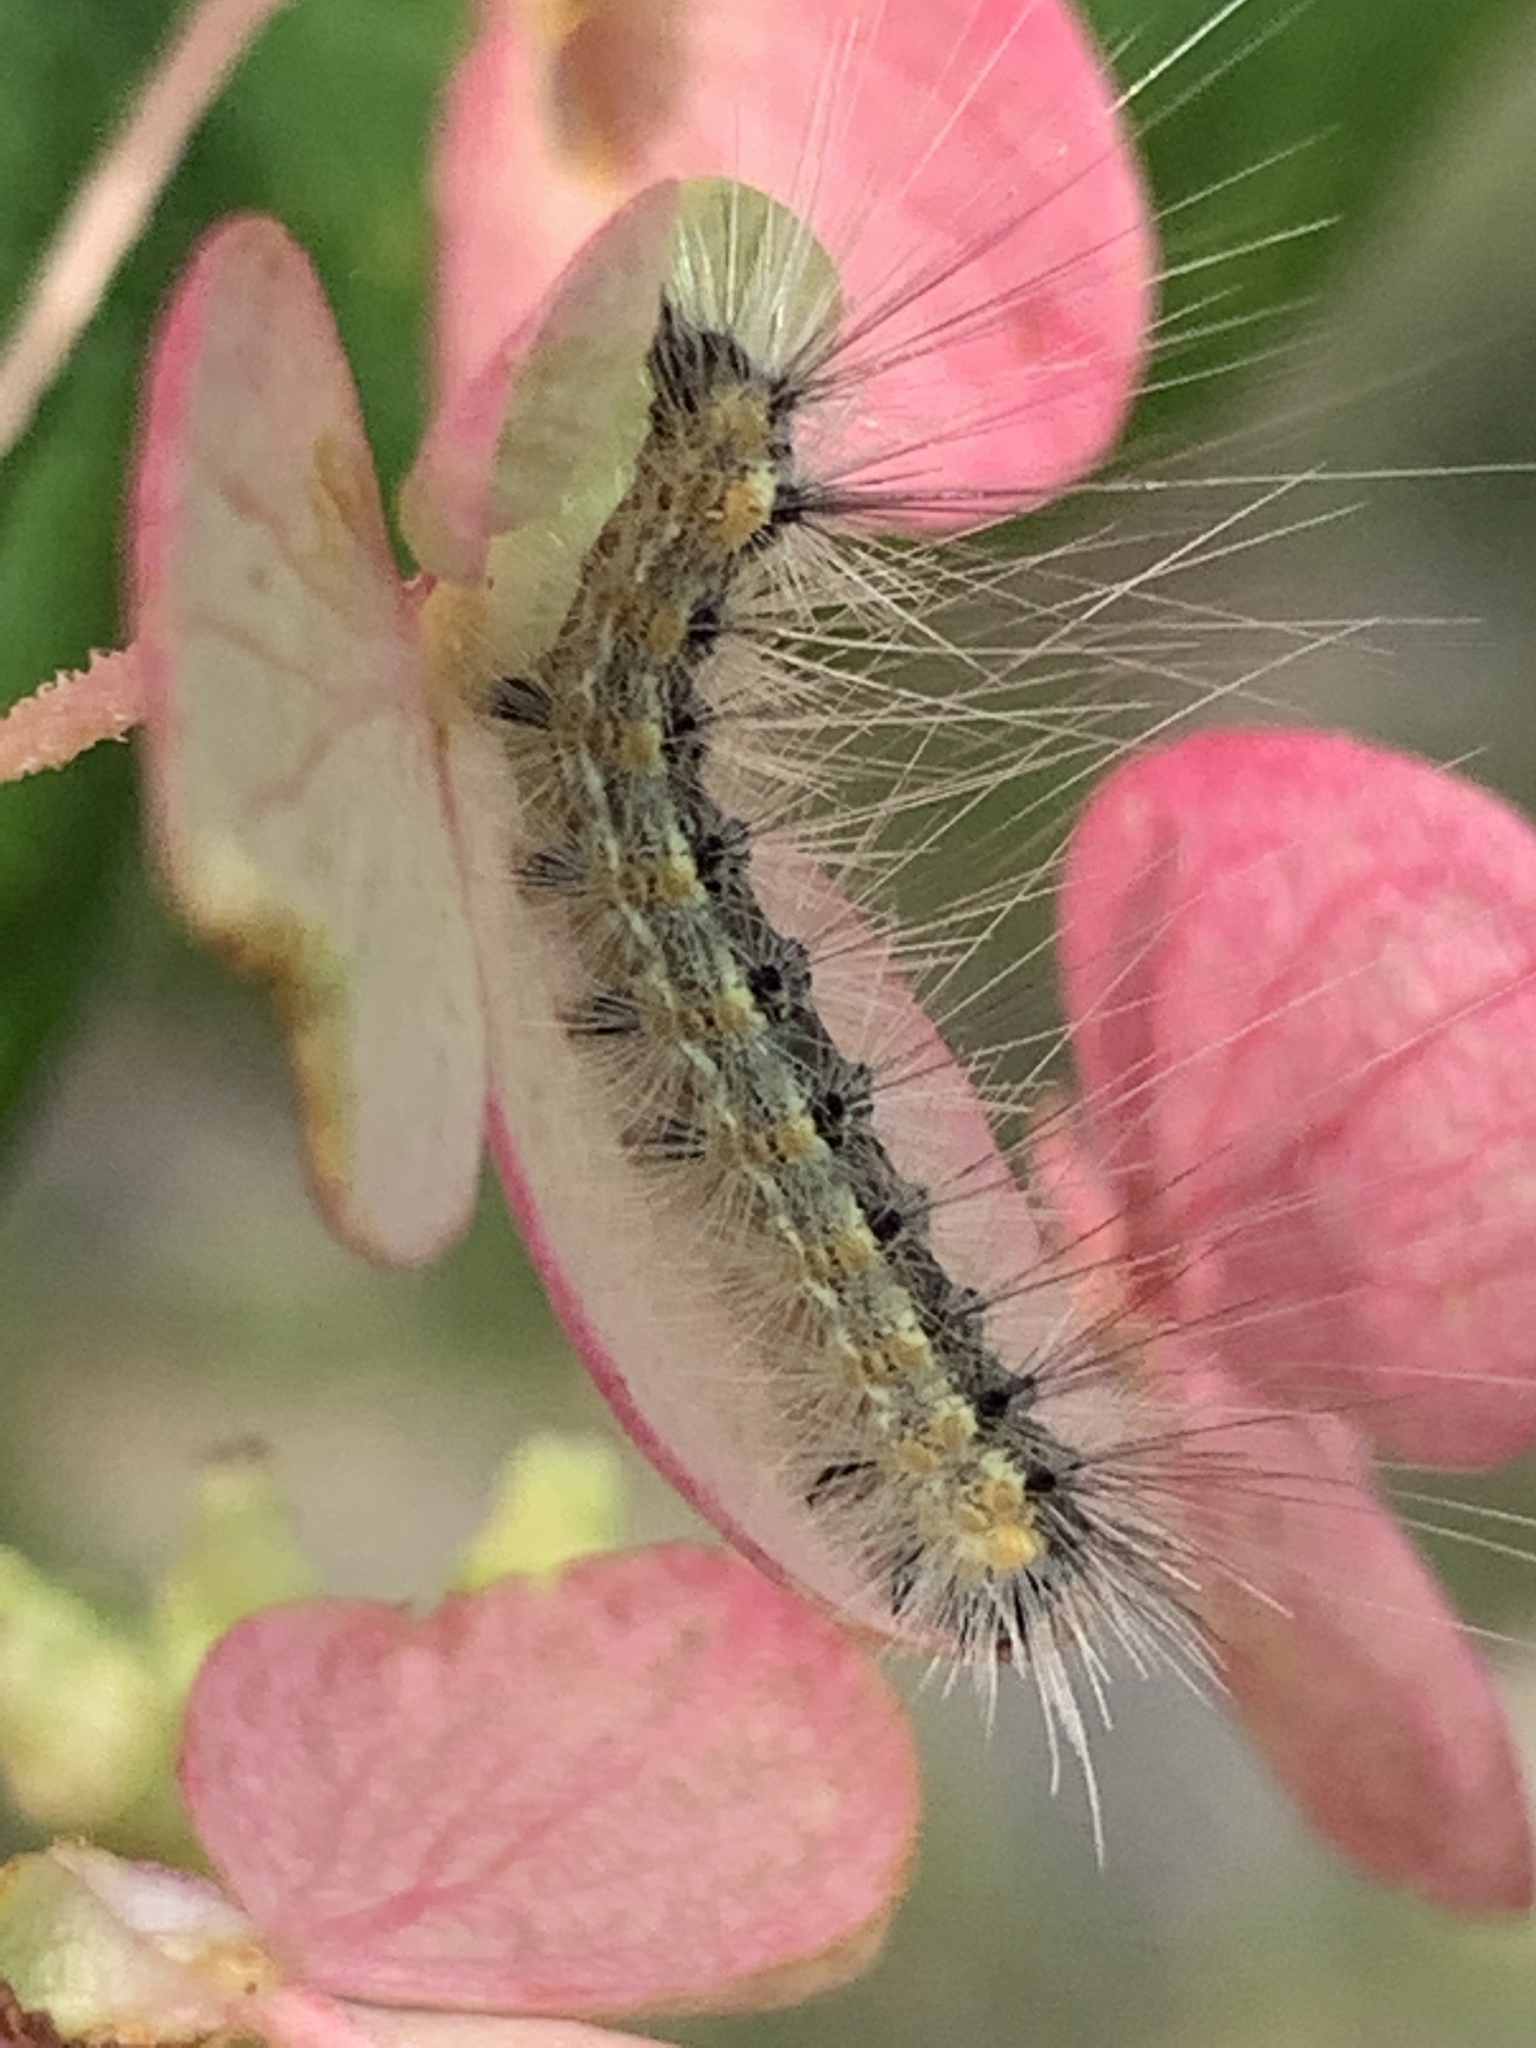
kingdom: Animalia
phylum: Arthropoda
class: Insecta
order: Lepidoptera
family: Erebidae
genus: Hyphantria
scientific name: Hyphantria cunea
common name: American white moth
